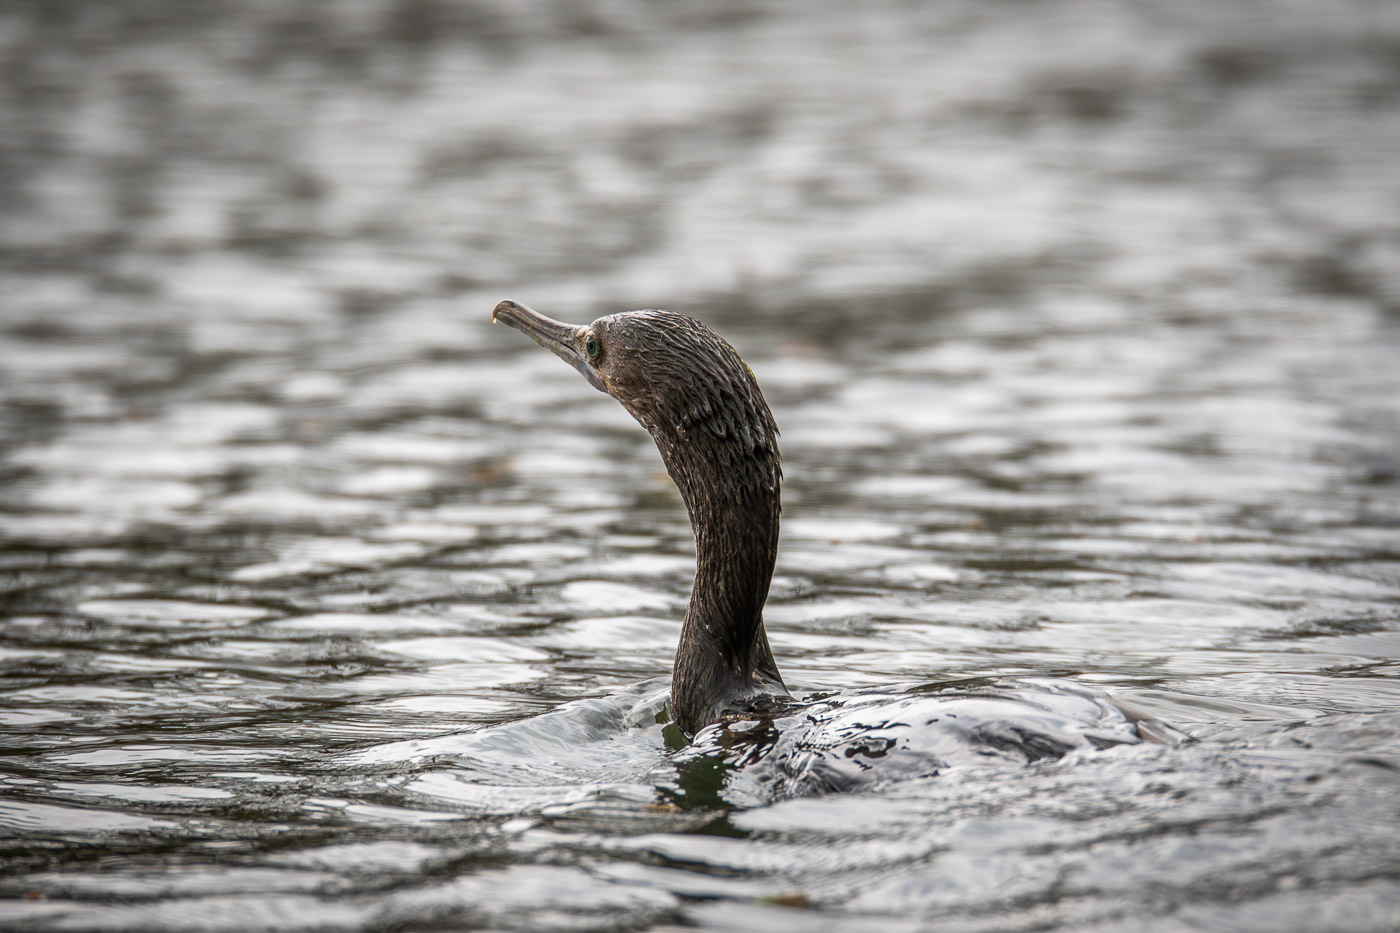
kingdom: Animalia
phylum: Chordata
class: Aves
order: Suliformes
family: Phalacrocoracidae
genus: Phalacrocorax
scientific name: Phalacrocorax sulcirostris
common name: Little black cormorant
